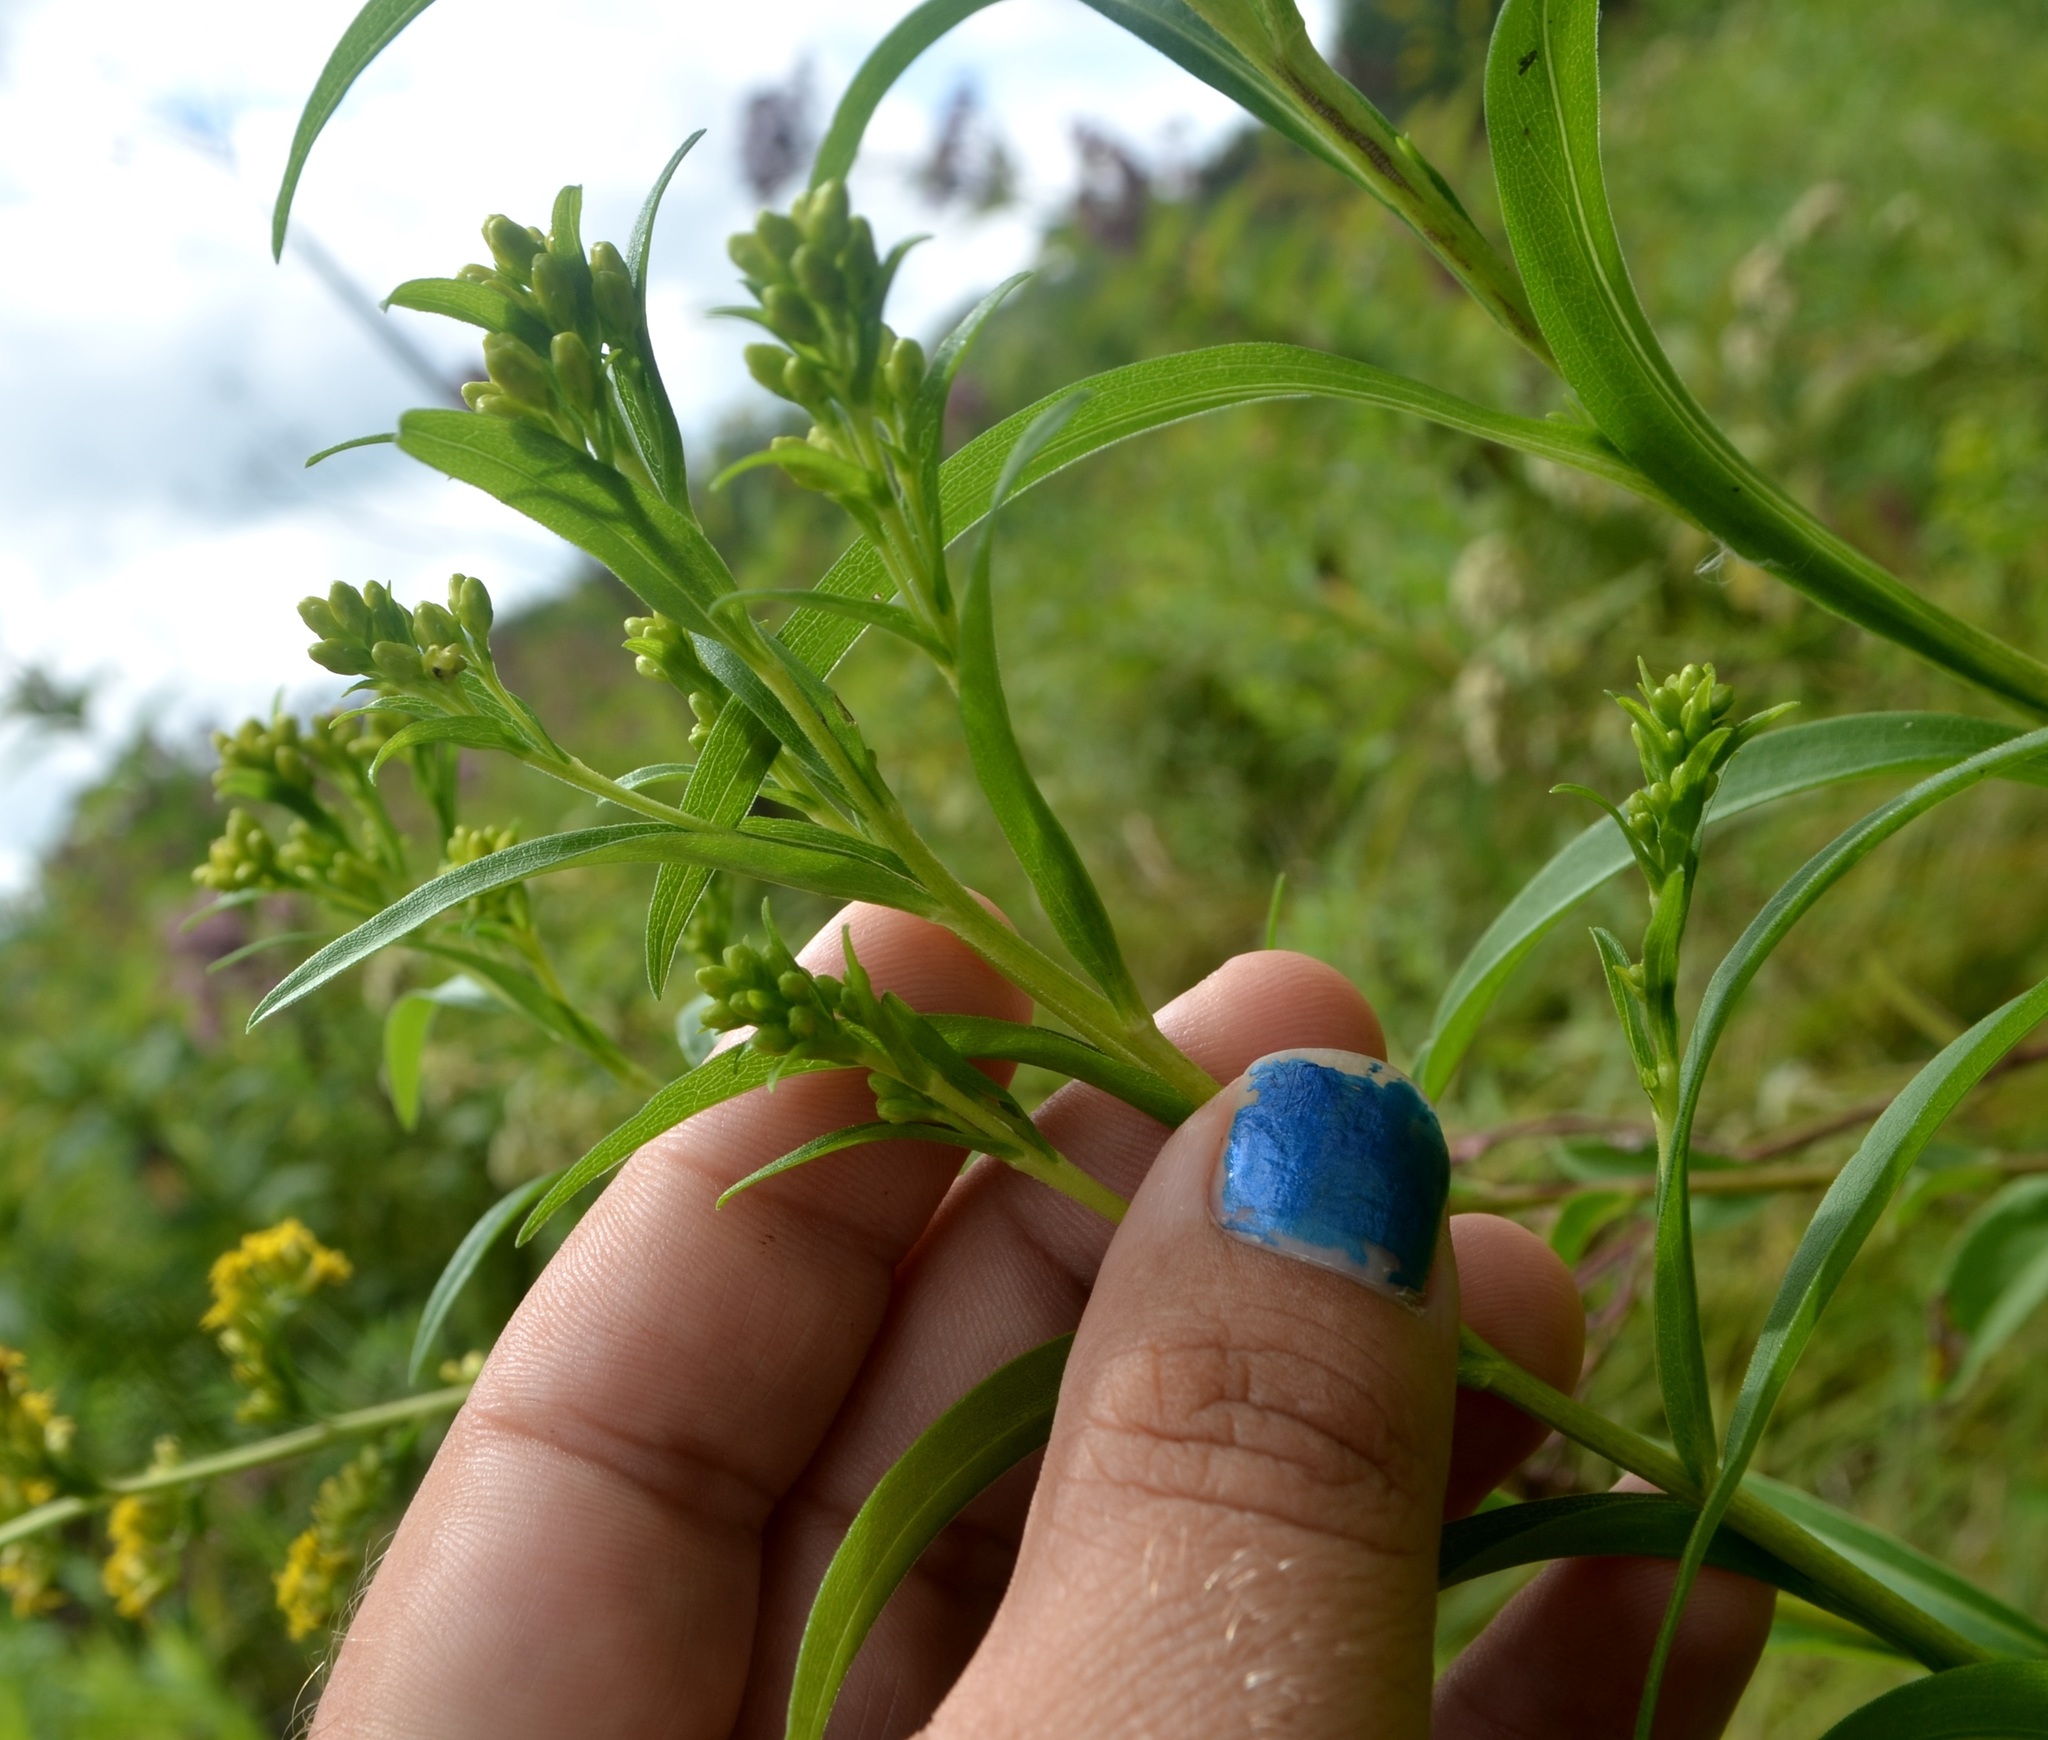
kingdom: Plantae
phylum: Tracheophyta
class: Magnoliopsida
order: Asterales
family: Asteraceae
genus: Solidago
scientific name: Solidago riddellii
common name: Riddell's goldenrod
